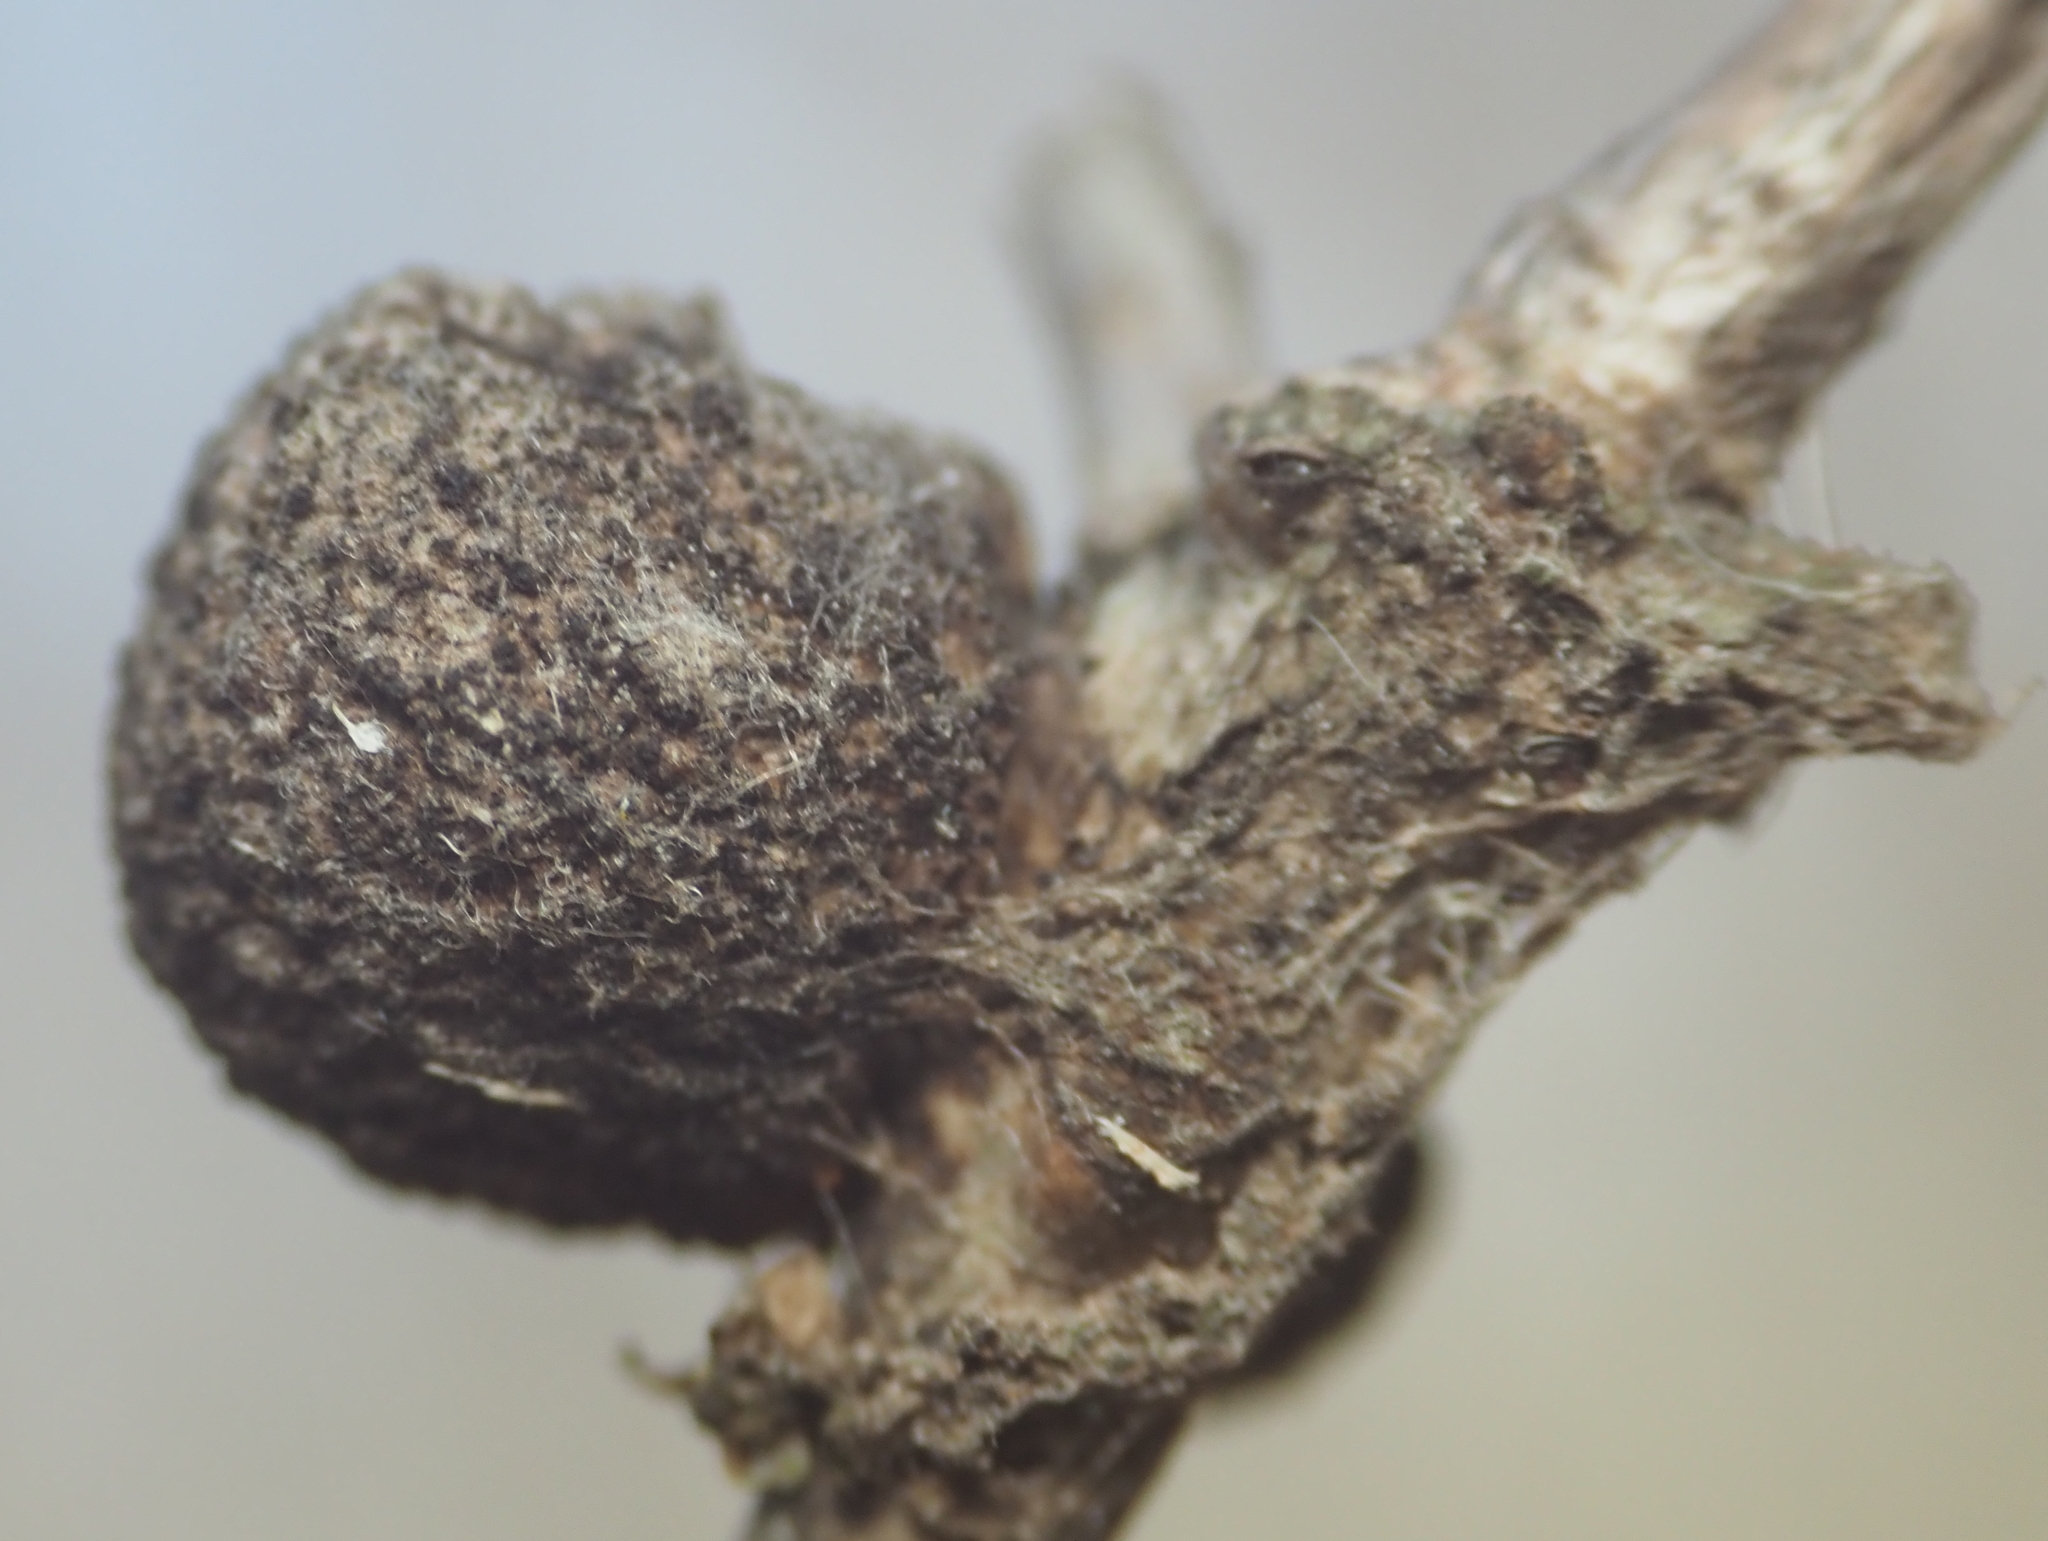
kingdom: Animalia
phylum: Arthropoda
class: Insecta
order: Hymenoptera
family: Cynipidae
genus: Disholcaspis
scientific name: Disholcaspis quercusglobulus
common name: Round bullet gall wasp
